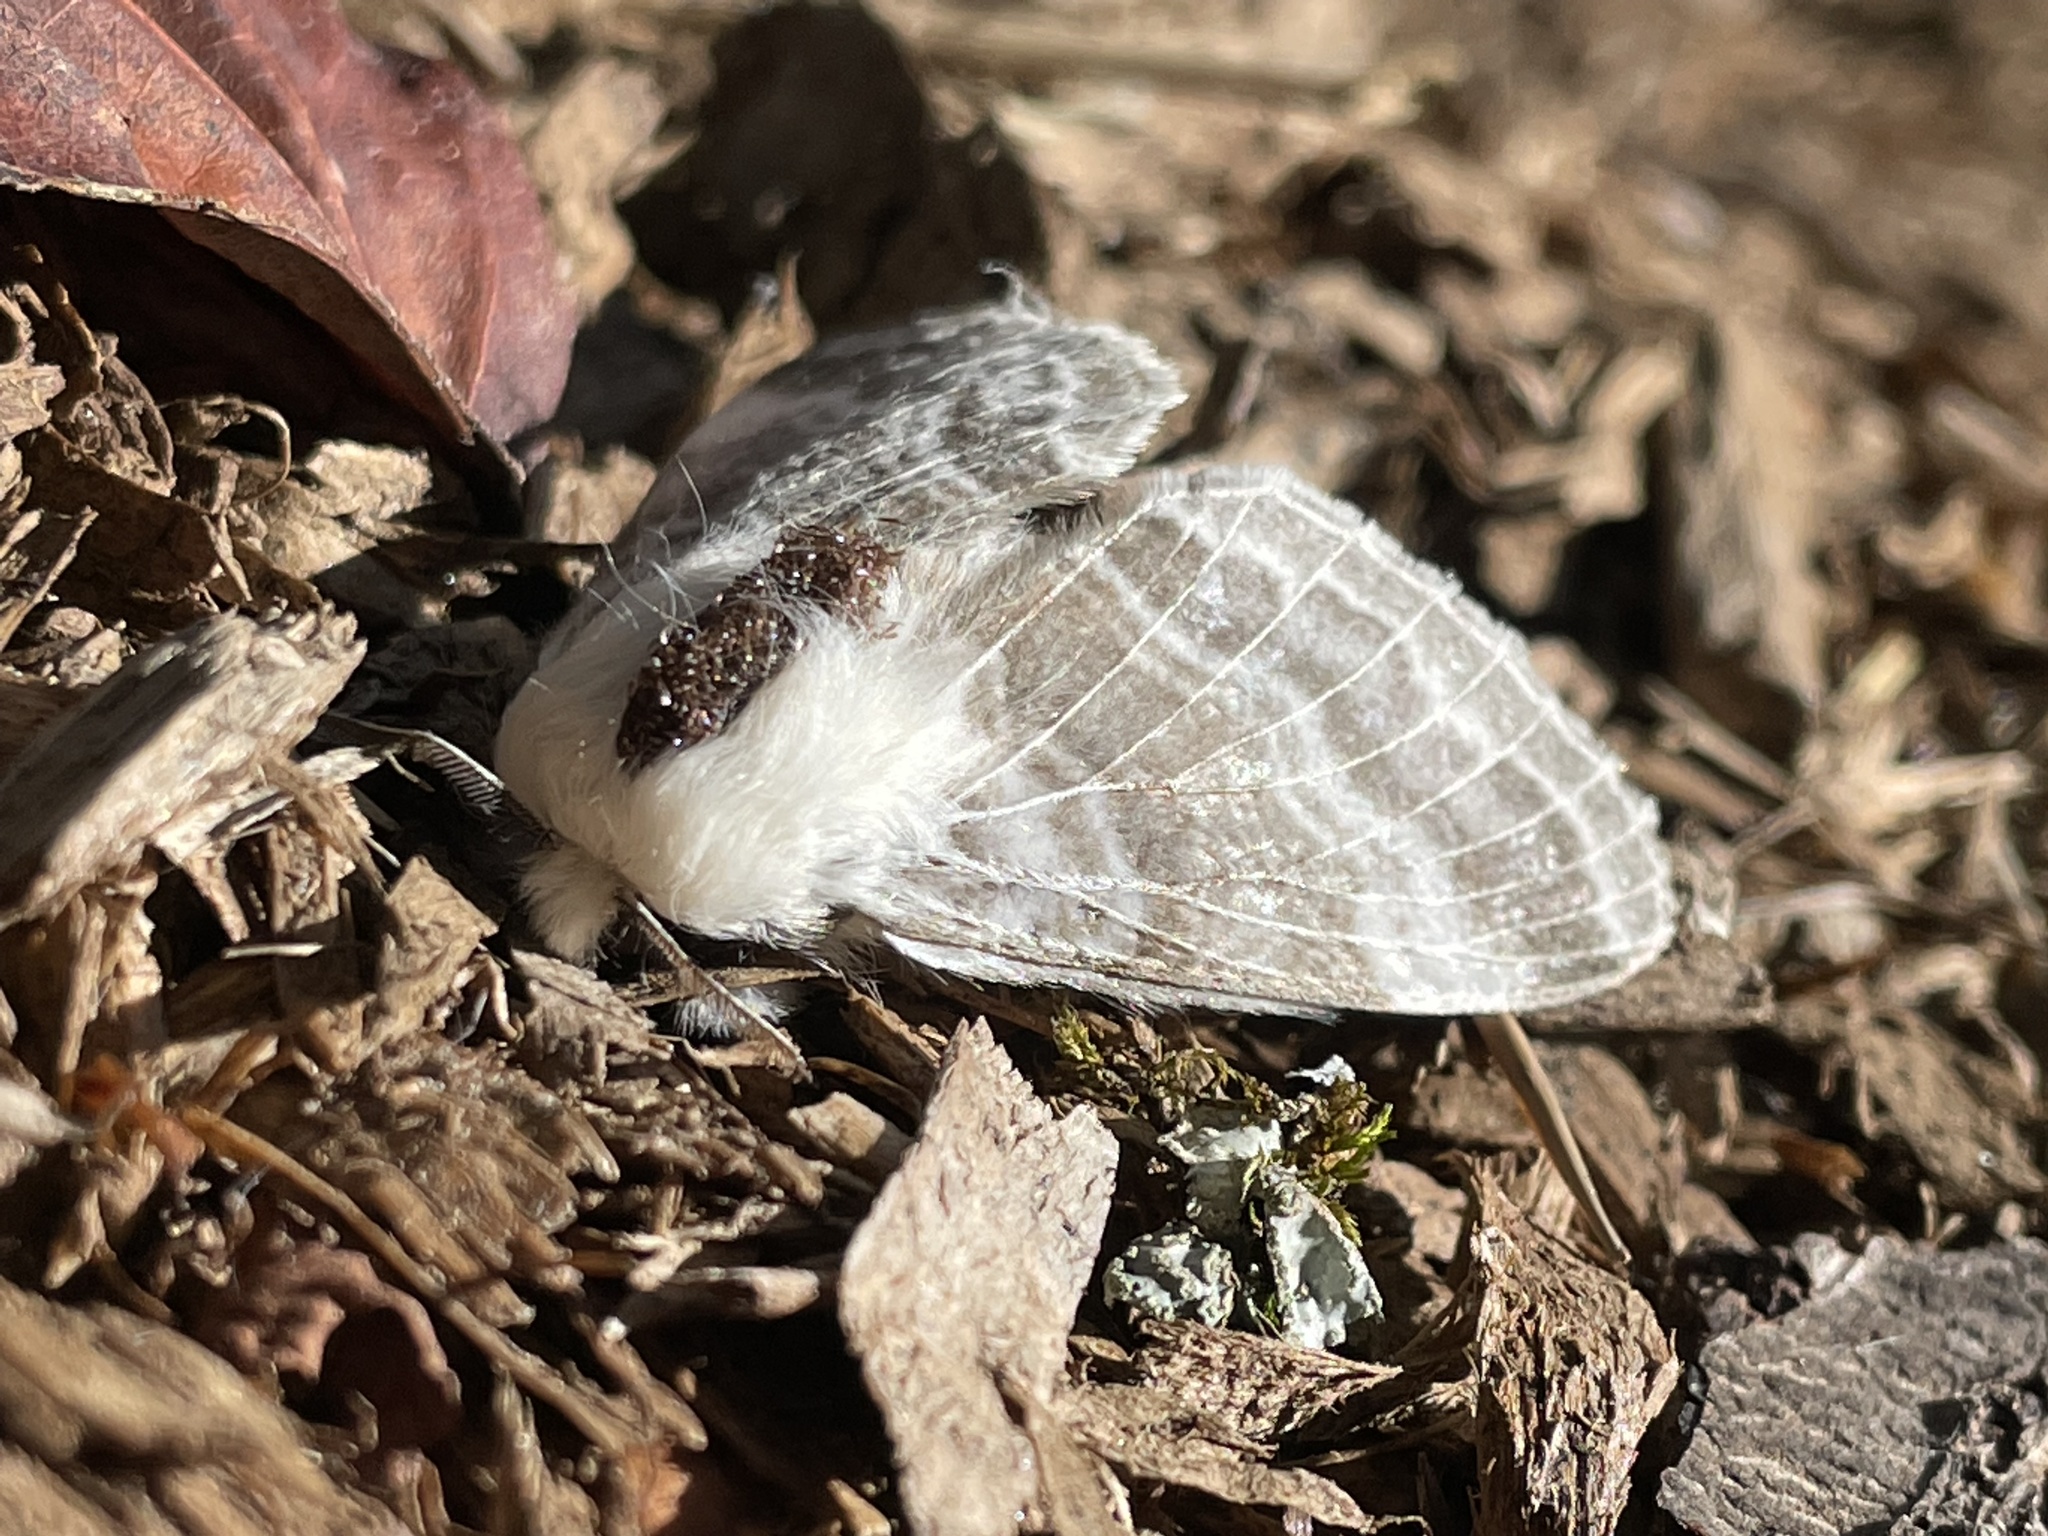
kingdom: Animalia
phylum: Arthropoda
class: Insecta
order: Lepidoptera
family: Lasiocampidae
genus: Tolype
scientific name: Tolype velleda
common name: Large tolype moth
